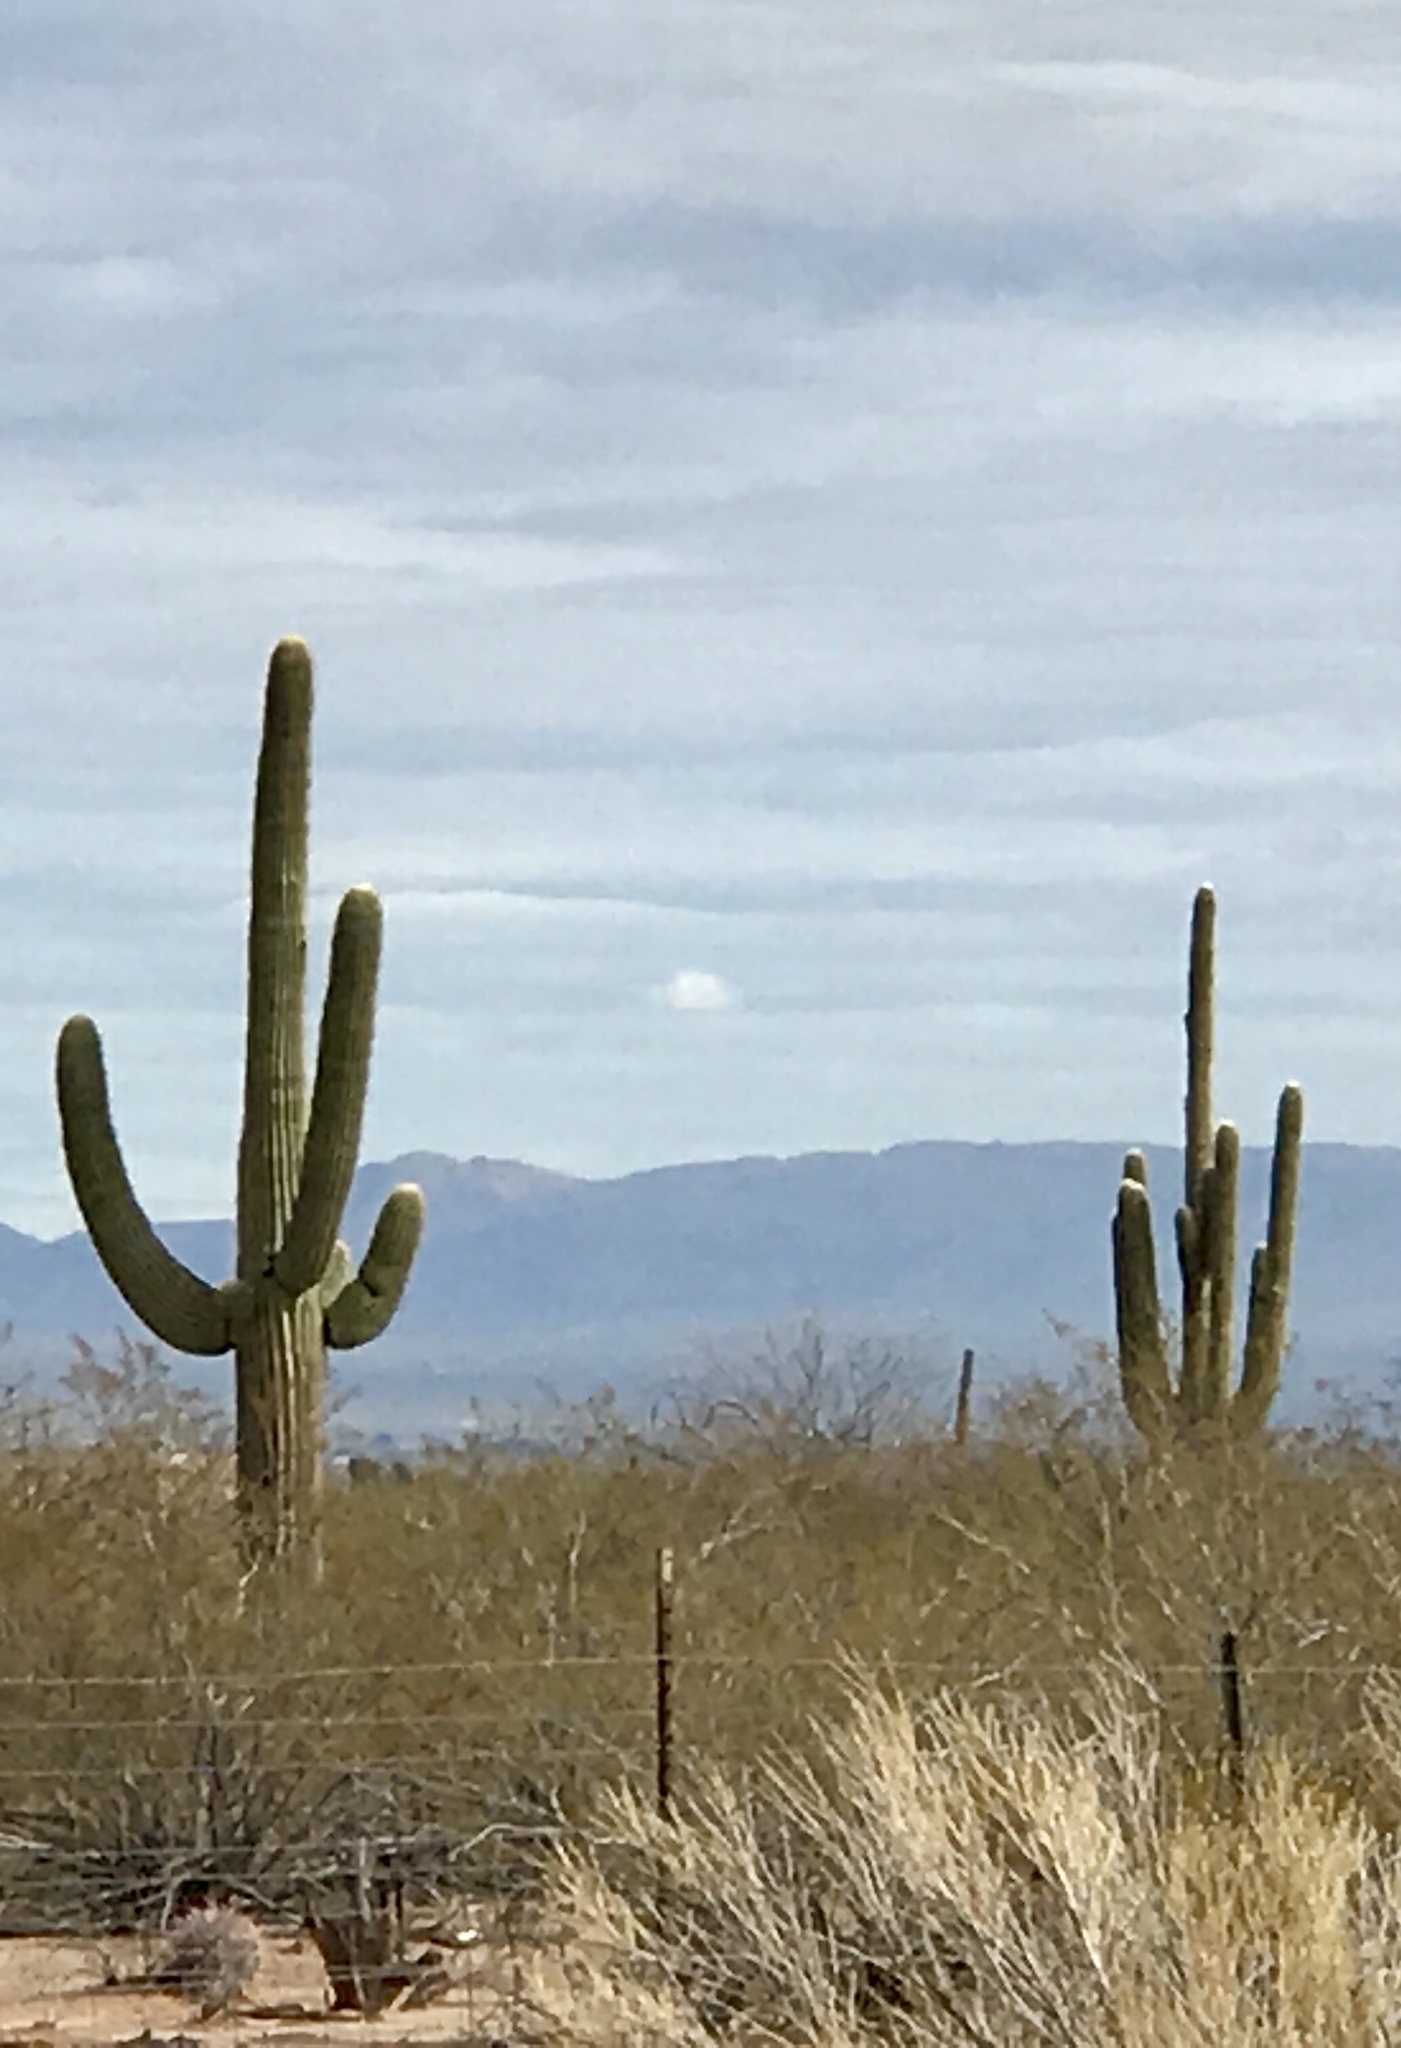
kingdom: Plantae
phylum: Tracheophyta
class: Magnoliopsida
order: Caryophyllales
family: Cactaceae
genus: Carnegiea
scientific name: Carnegiea gigantea
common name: Saguaro
